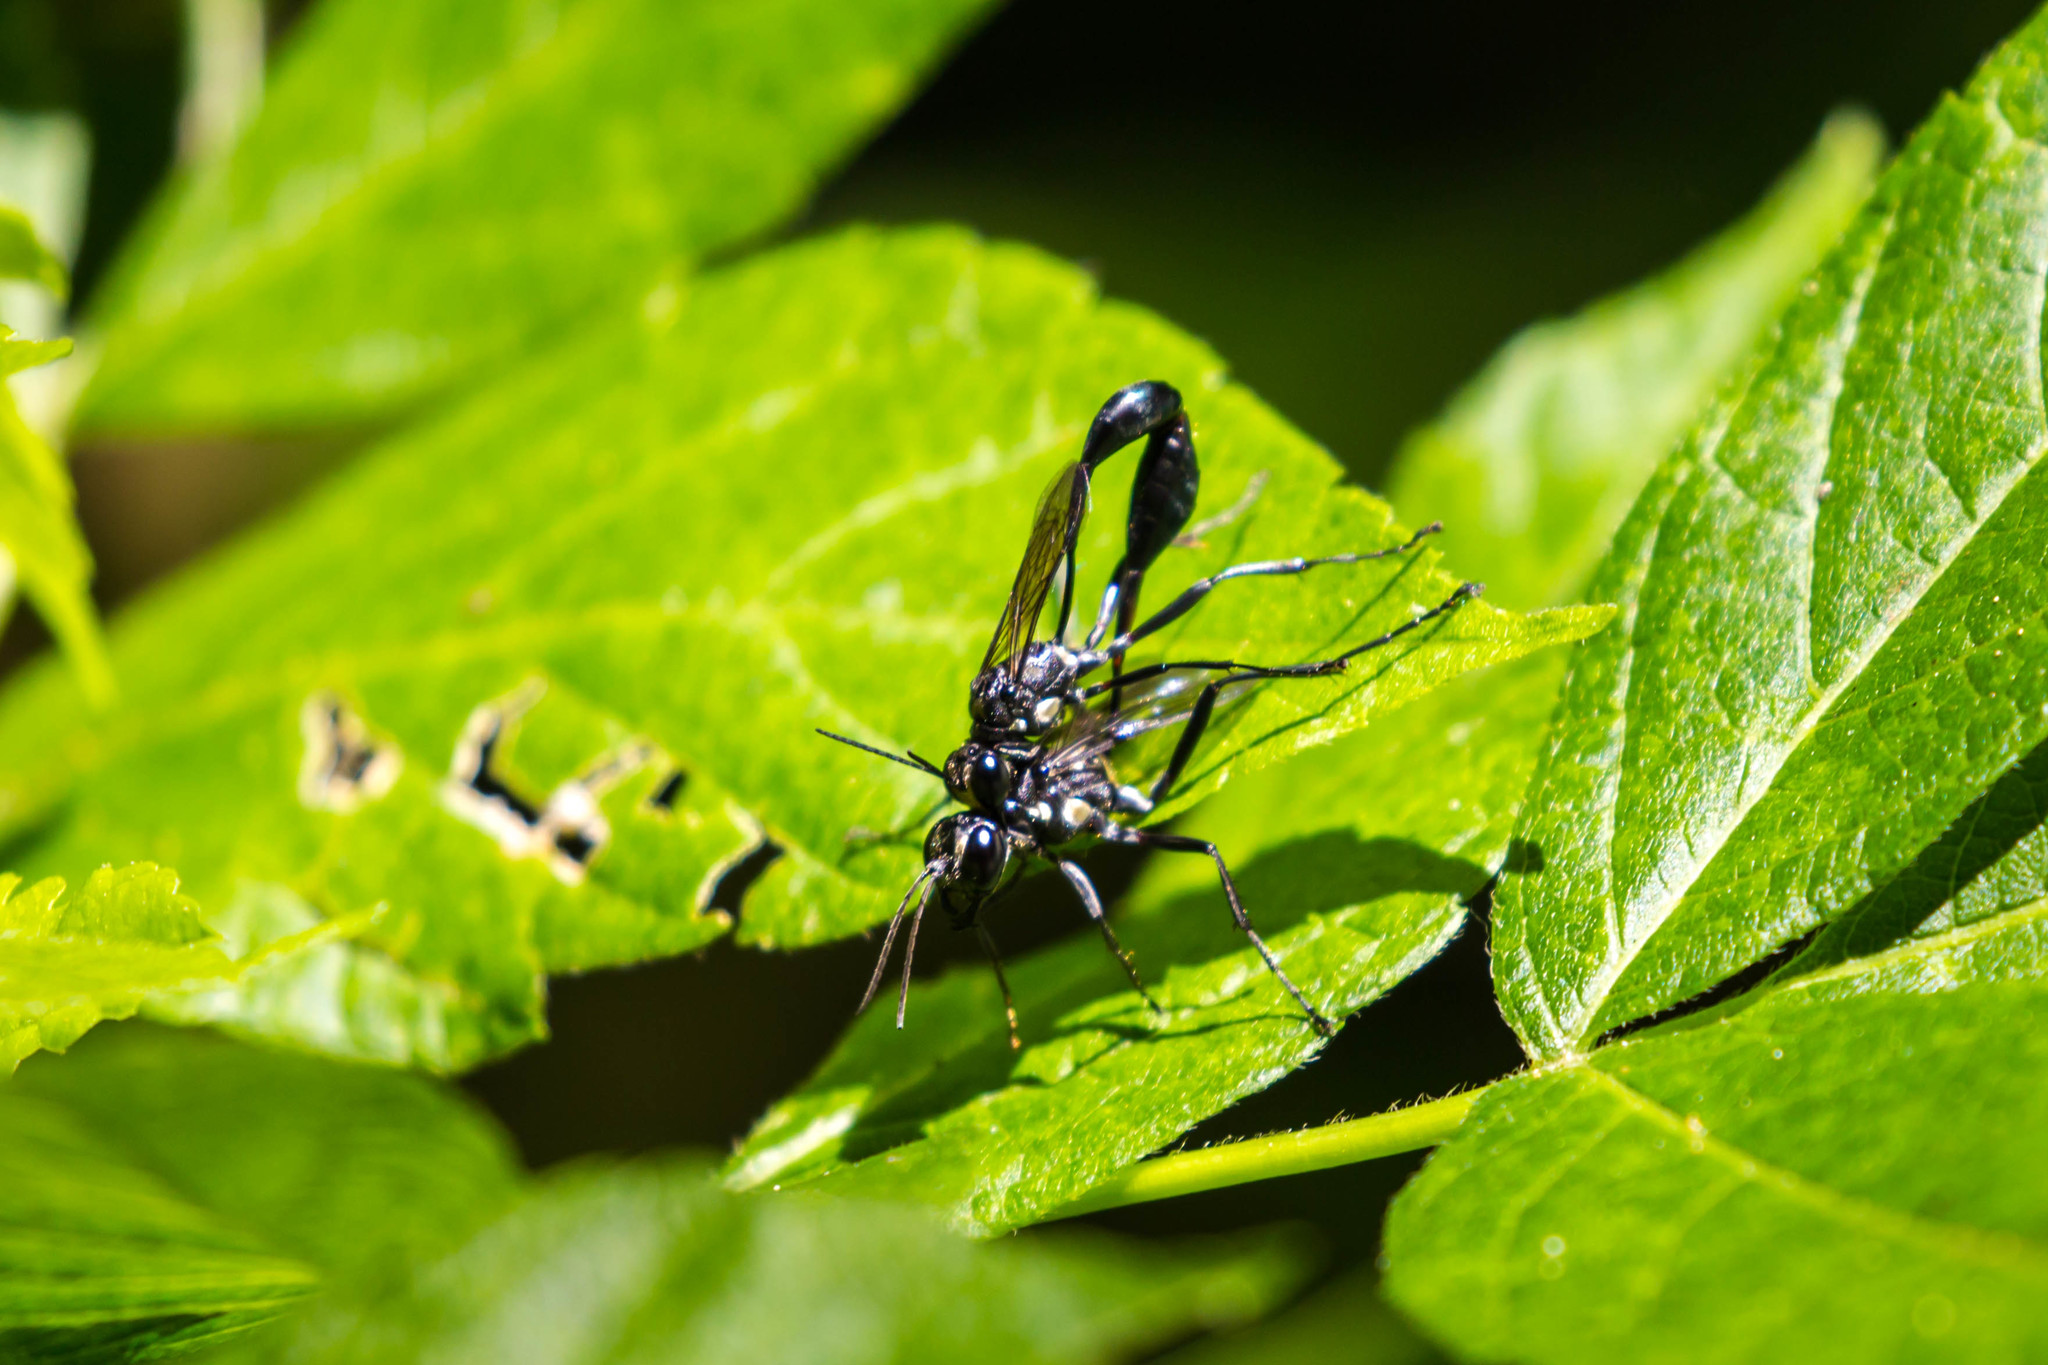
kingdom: Animalia
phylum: Arthropoda
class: Insecta
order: Hymenoptera
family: Sphecidae
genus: Eremnophila
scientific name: Eremnophila aureonotata
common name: Gold-marked thread-waisted wasp
